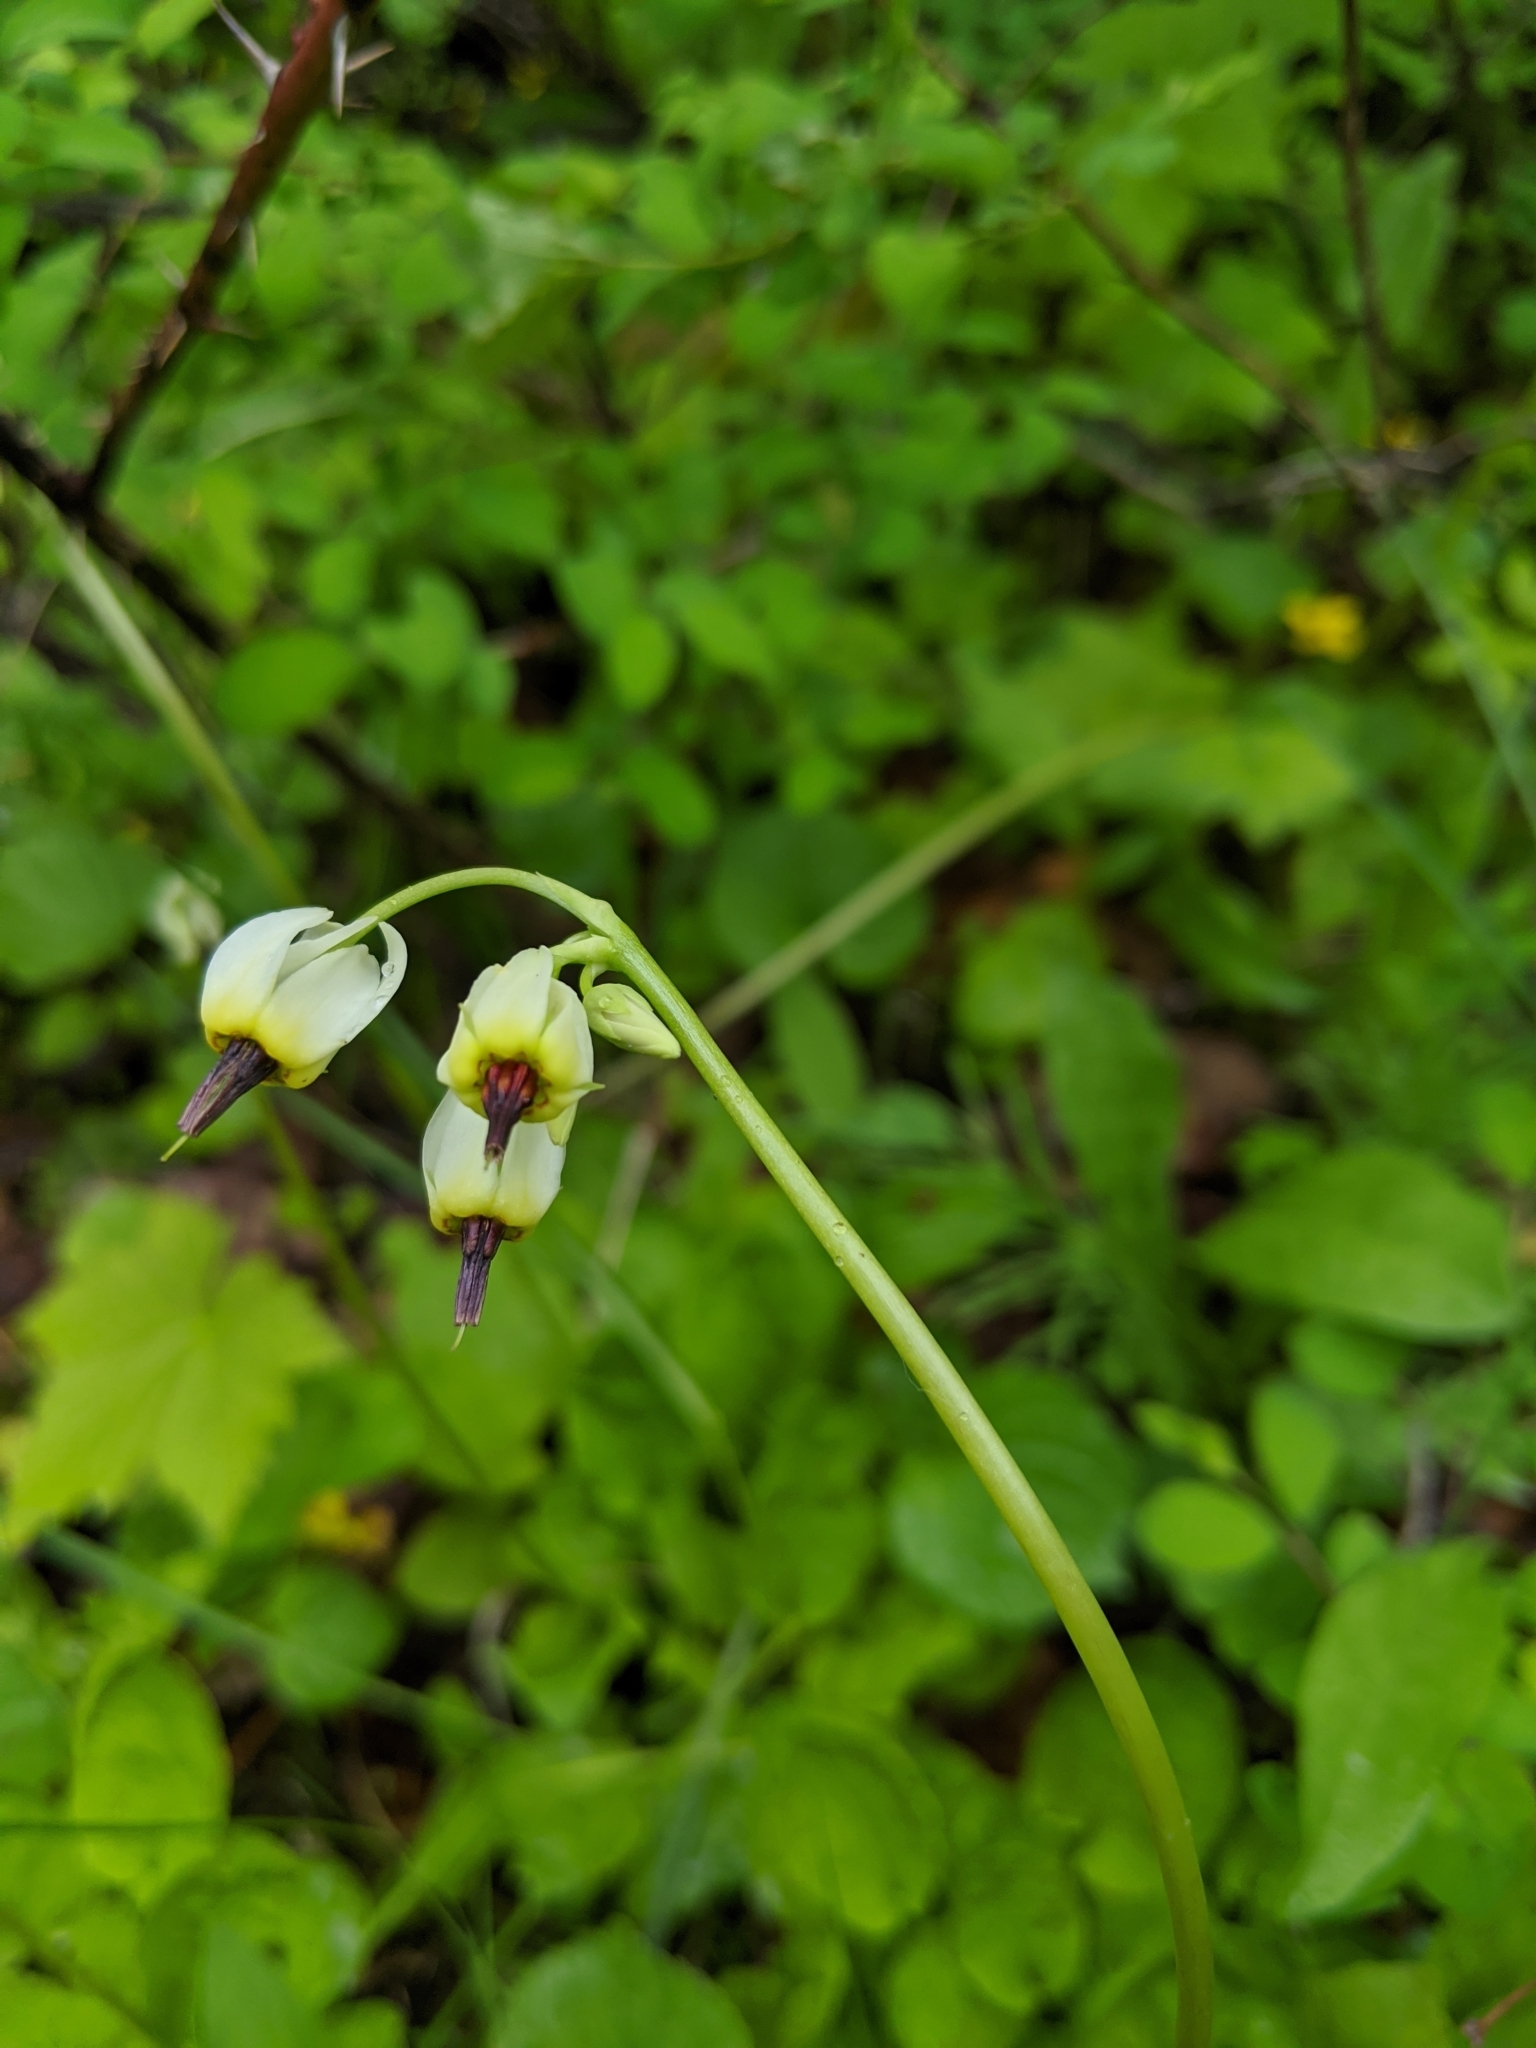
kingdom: Plantae
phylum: Tracheophyta
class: Magnoliopsida
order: Ericales
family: Primulaceae
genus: Dodecatheon
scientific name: Dodecatheon dentatum
